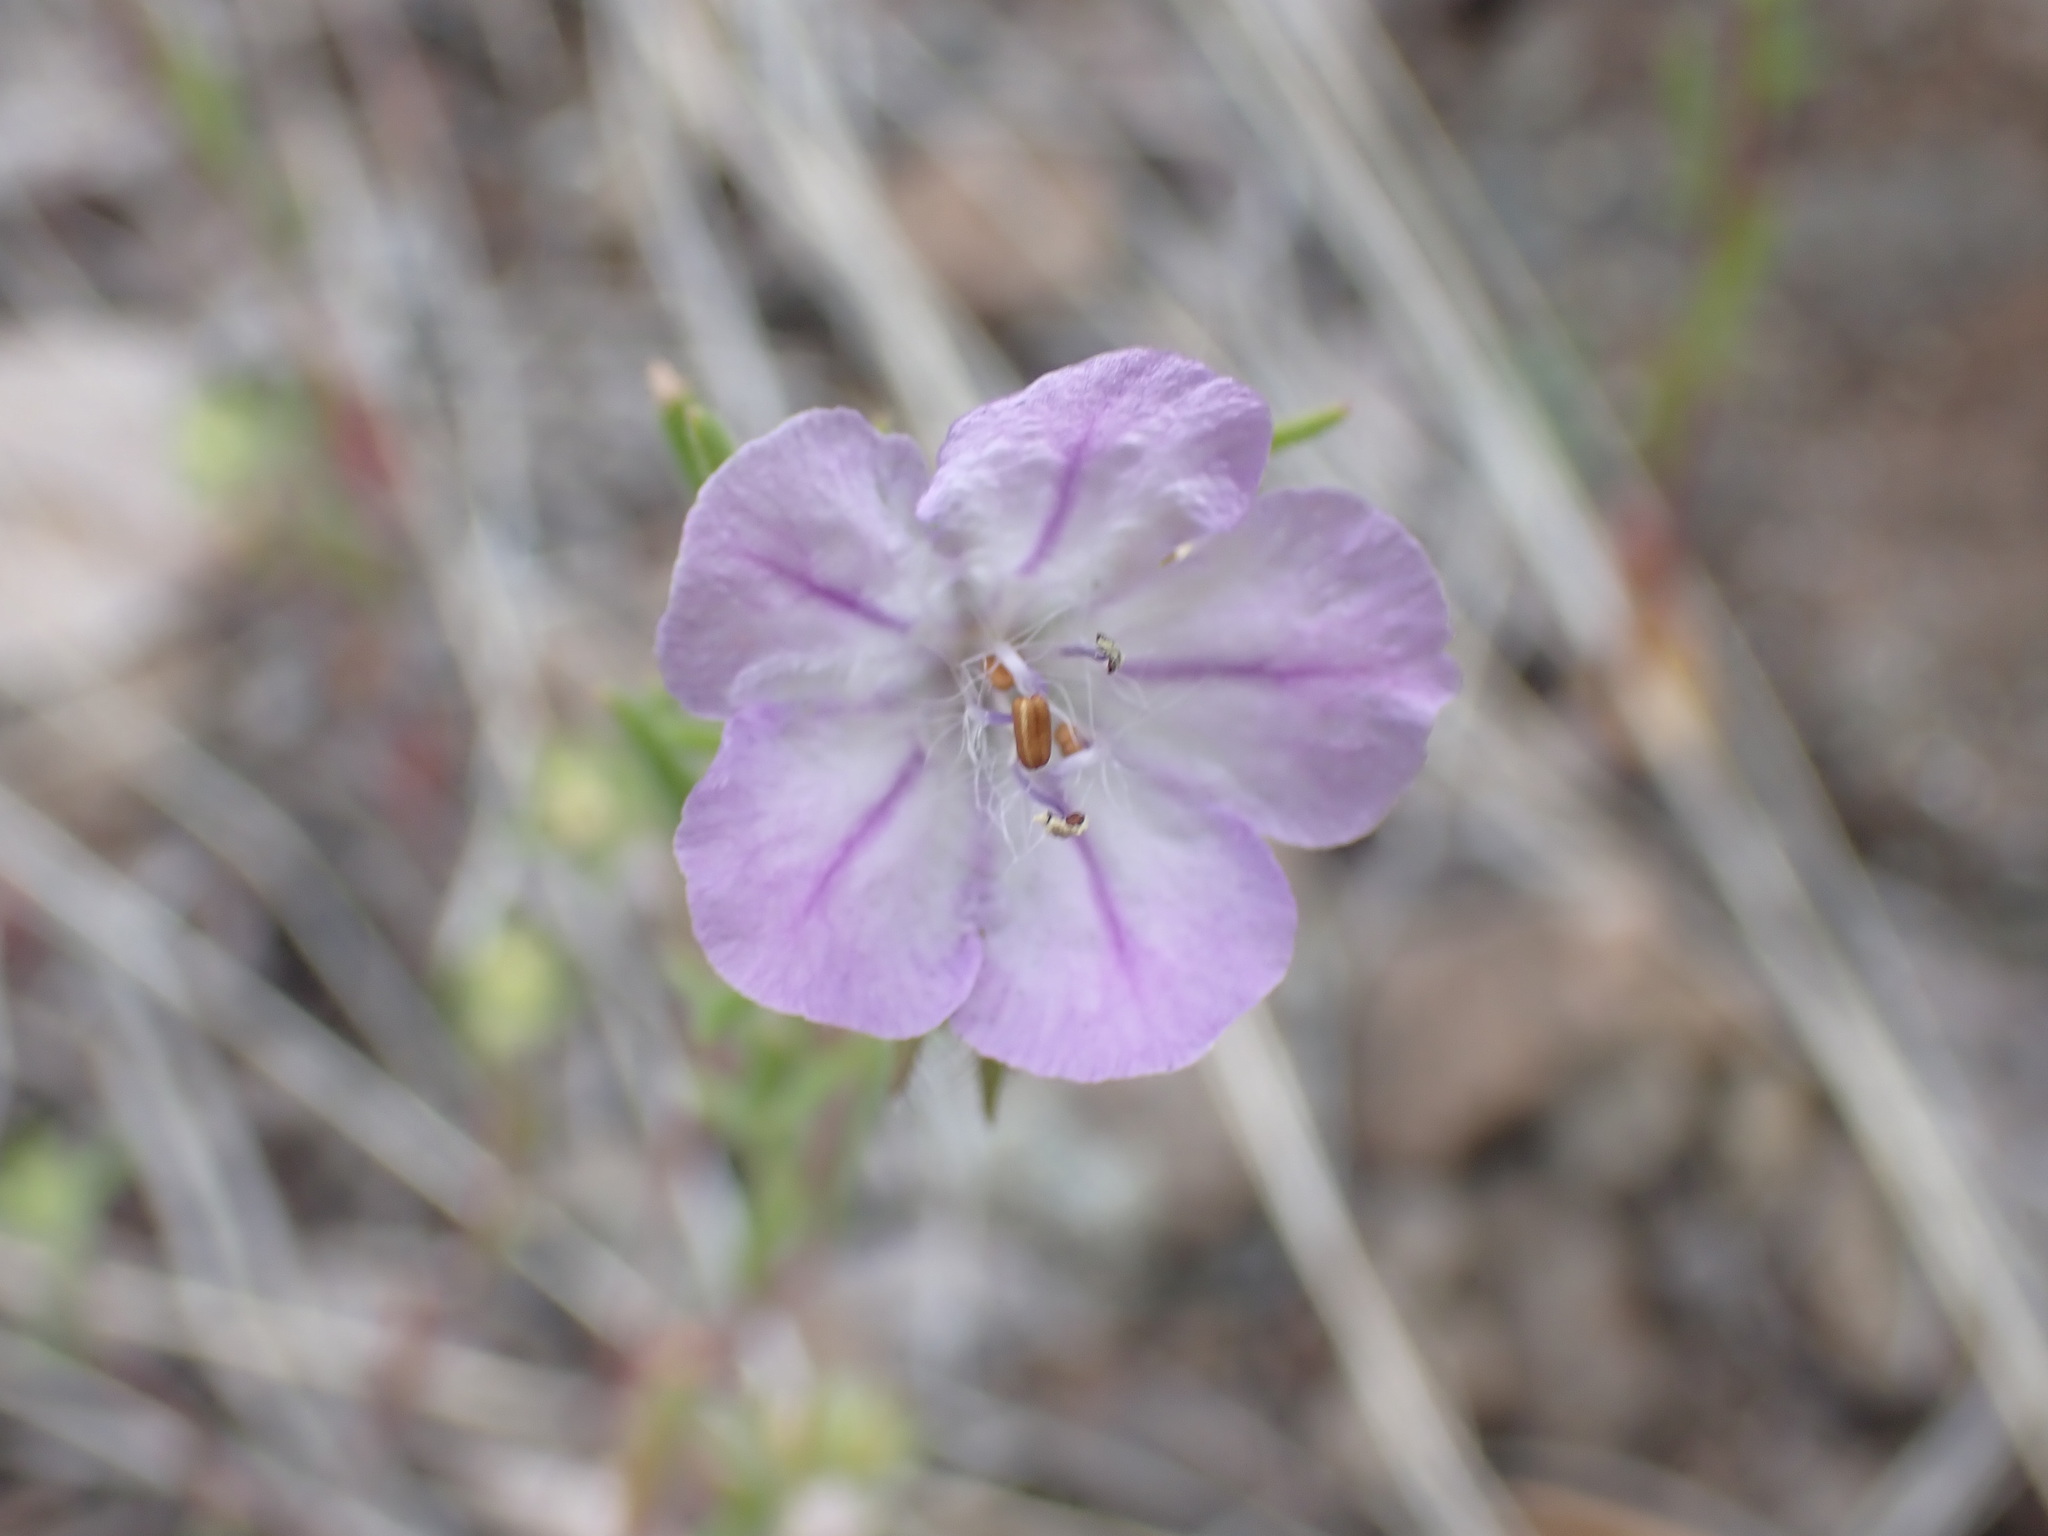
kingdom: Plantae
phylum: Tracheophyta
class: Magnoliopsida
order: Boraginales
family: Hydrophyllaceae
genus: Phacelia
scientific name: Phacelia linearis
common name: Linear-leaved phacelia
